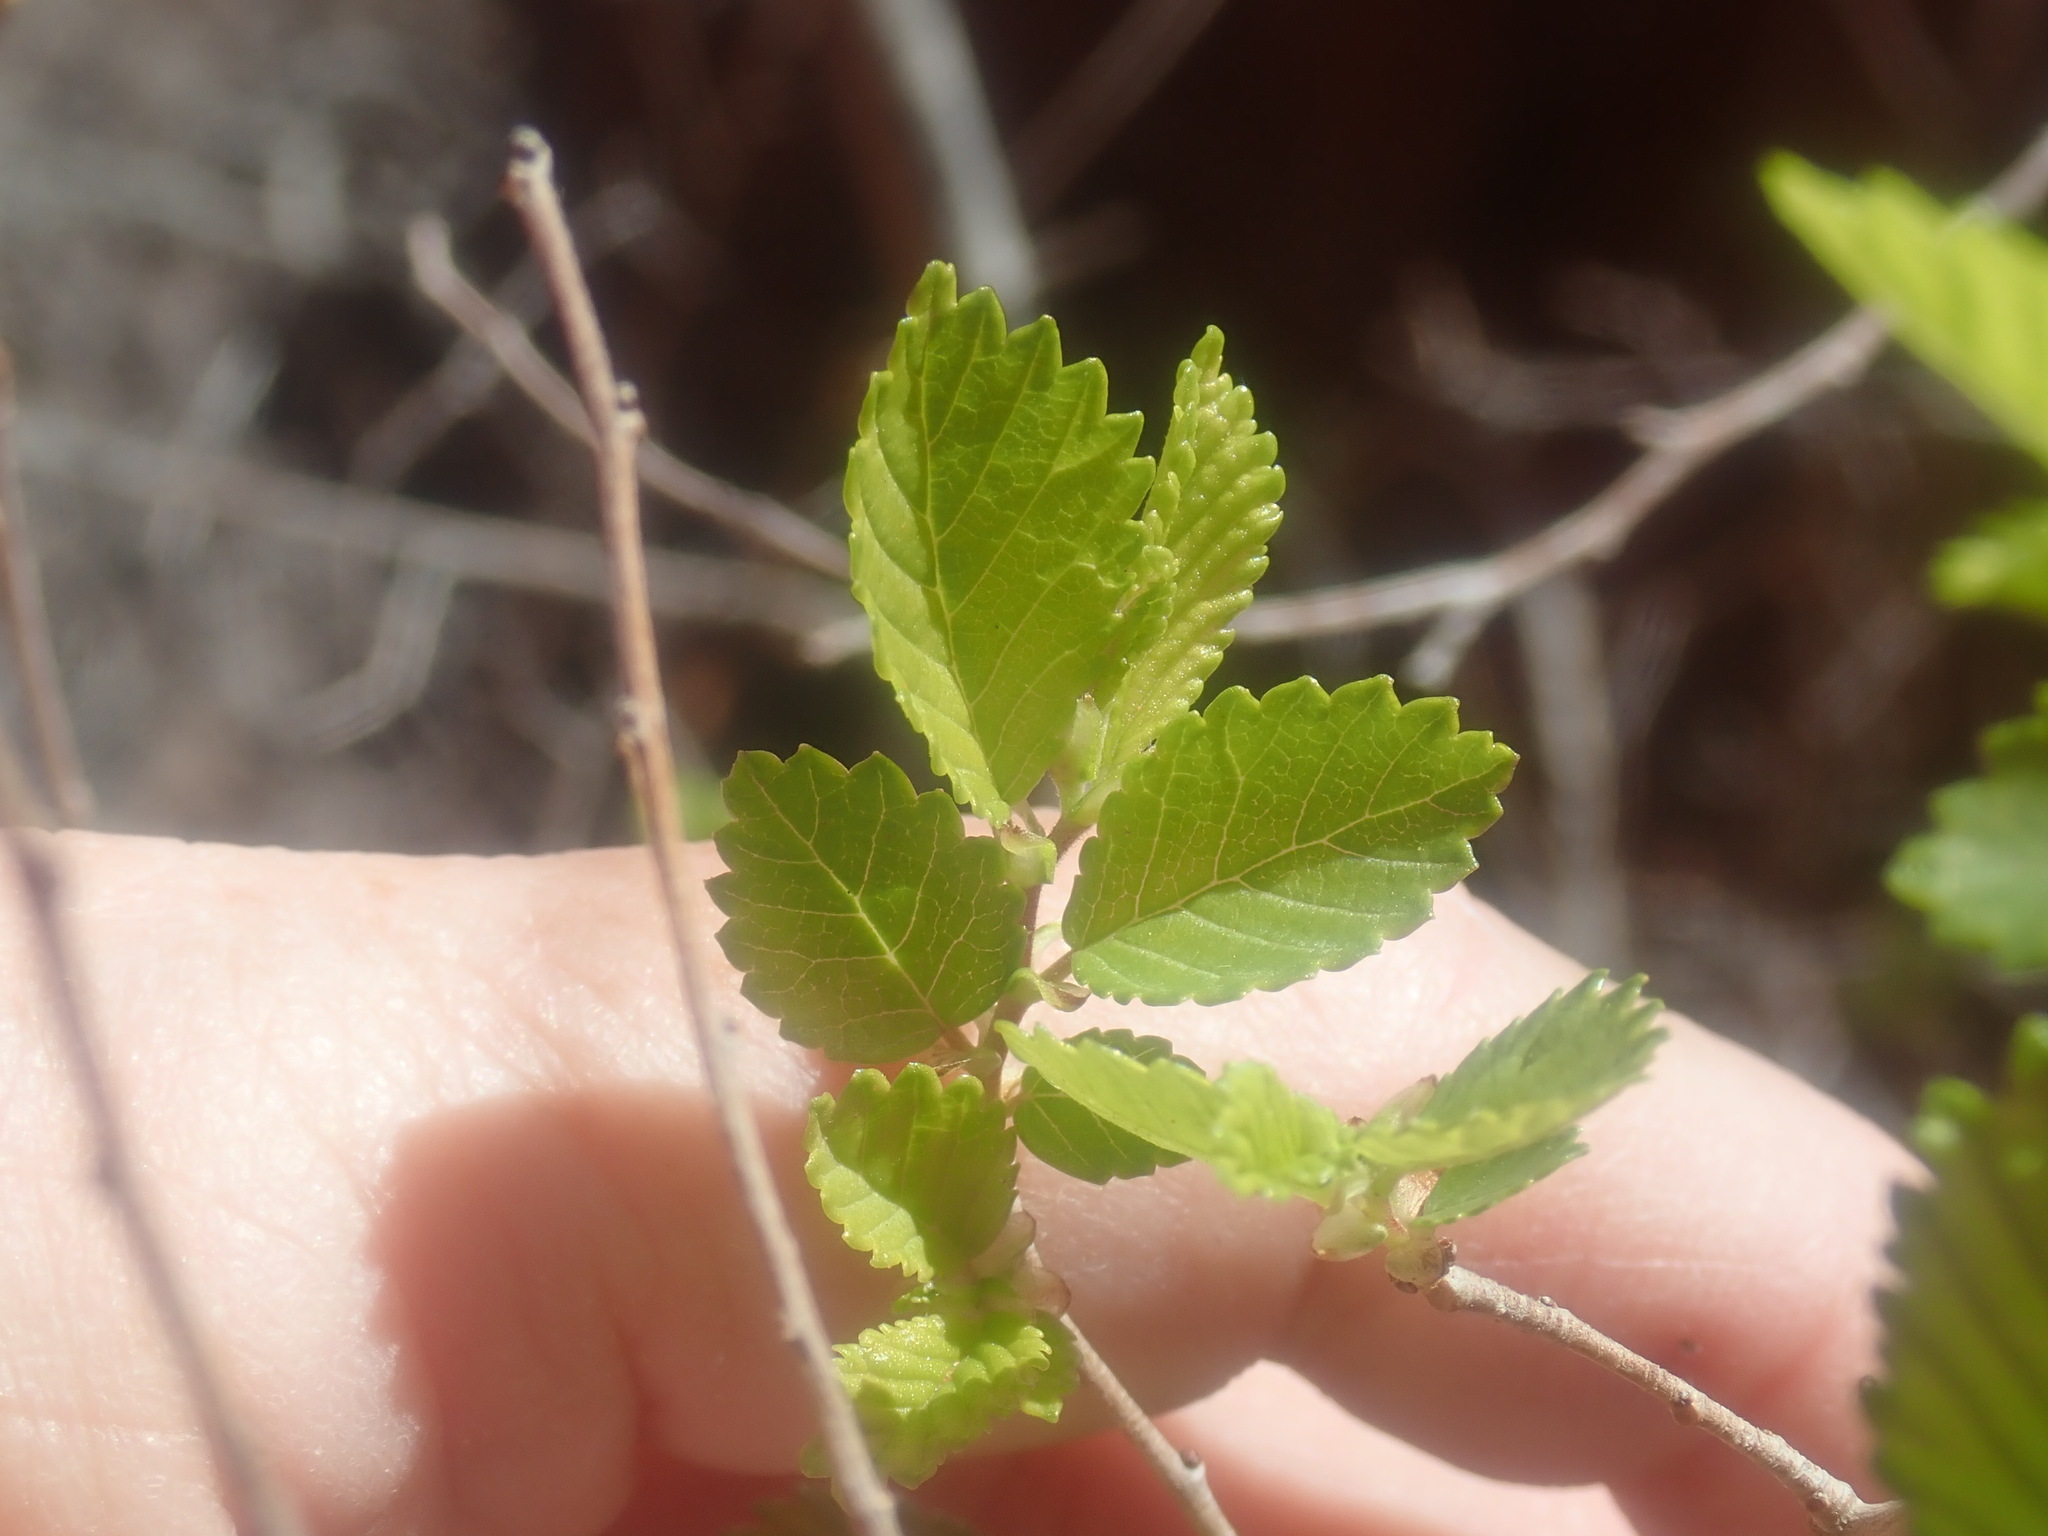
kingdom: Plantae
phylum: Tracheophyta
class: Magnoliopsida
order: Rosales
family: Ulmaceae
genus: Ulmus
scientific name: Ulmus pumila
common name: Siberian elm
